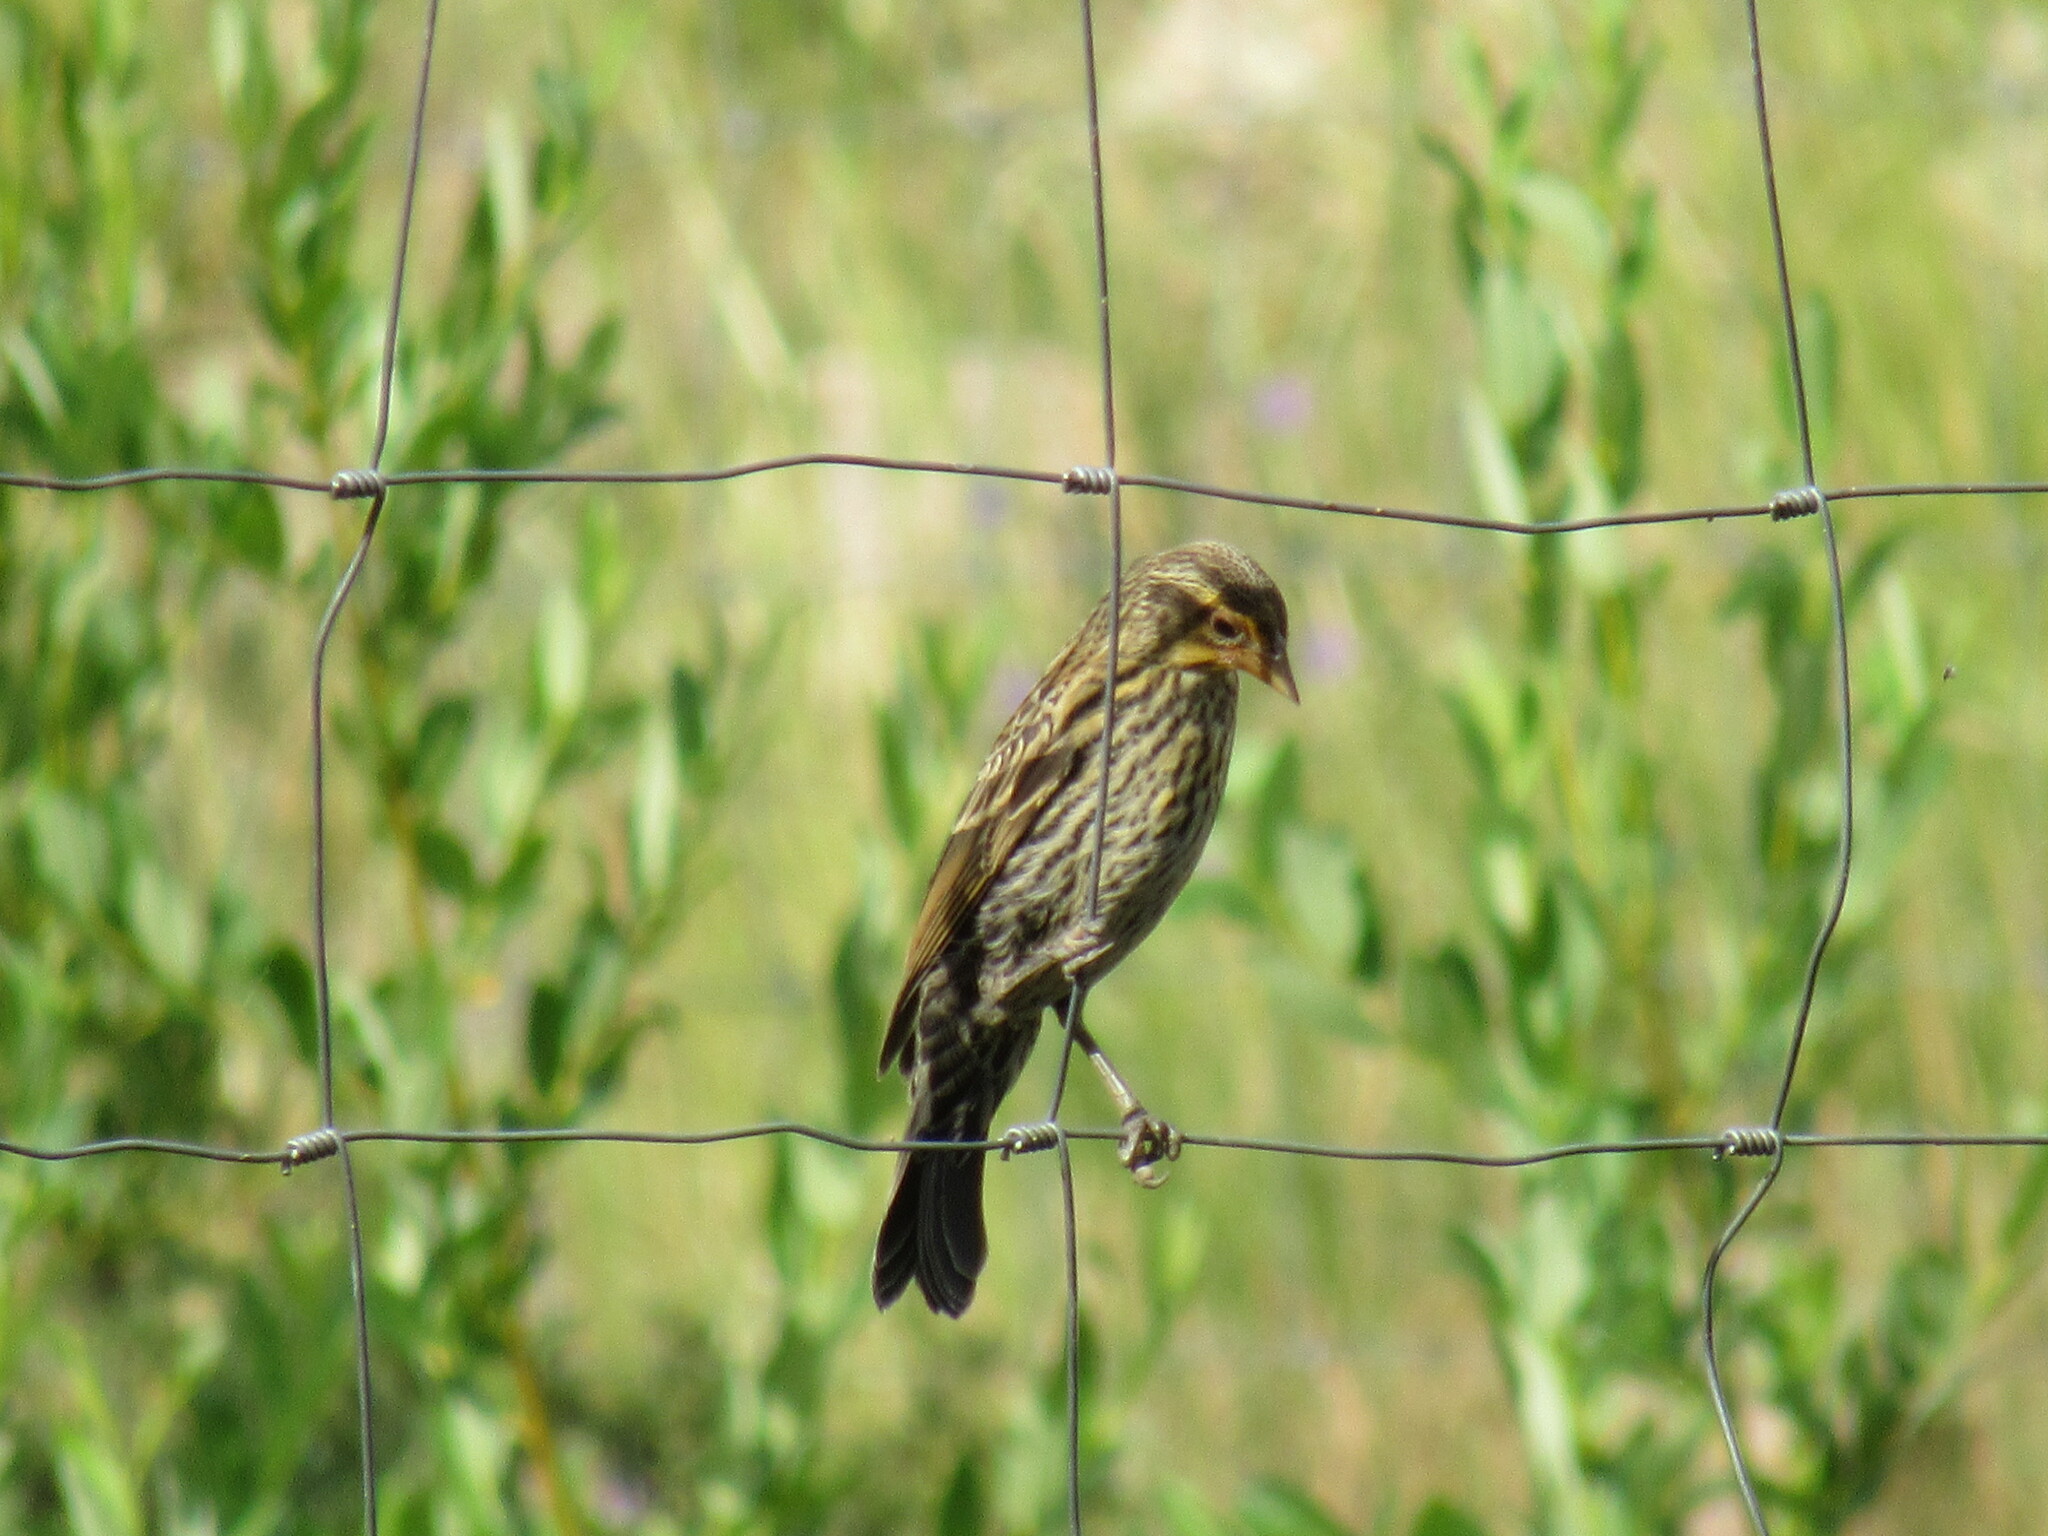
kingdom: Animalia
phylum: Chordata
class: Aves
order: Passeriformes
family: Icteridae
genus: Agelaius
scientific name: Agelaius phoeniceus
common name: Red-winged blackbird
